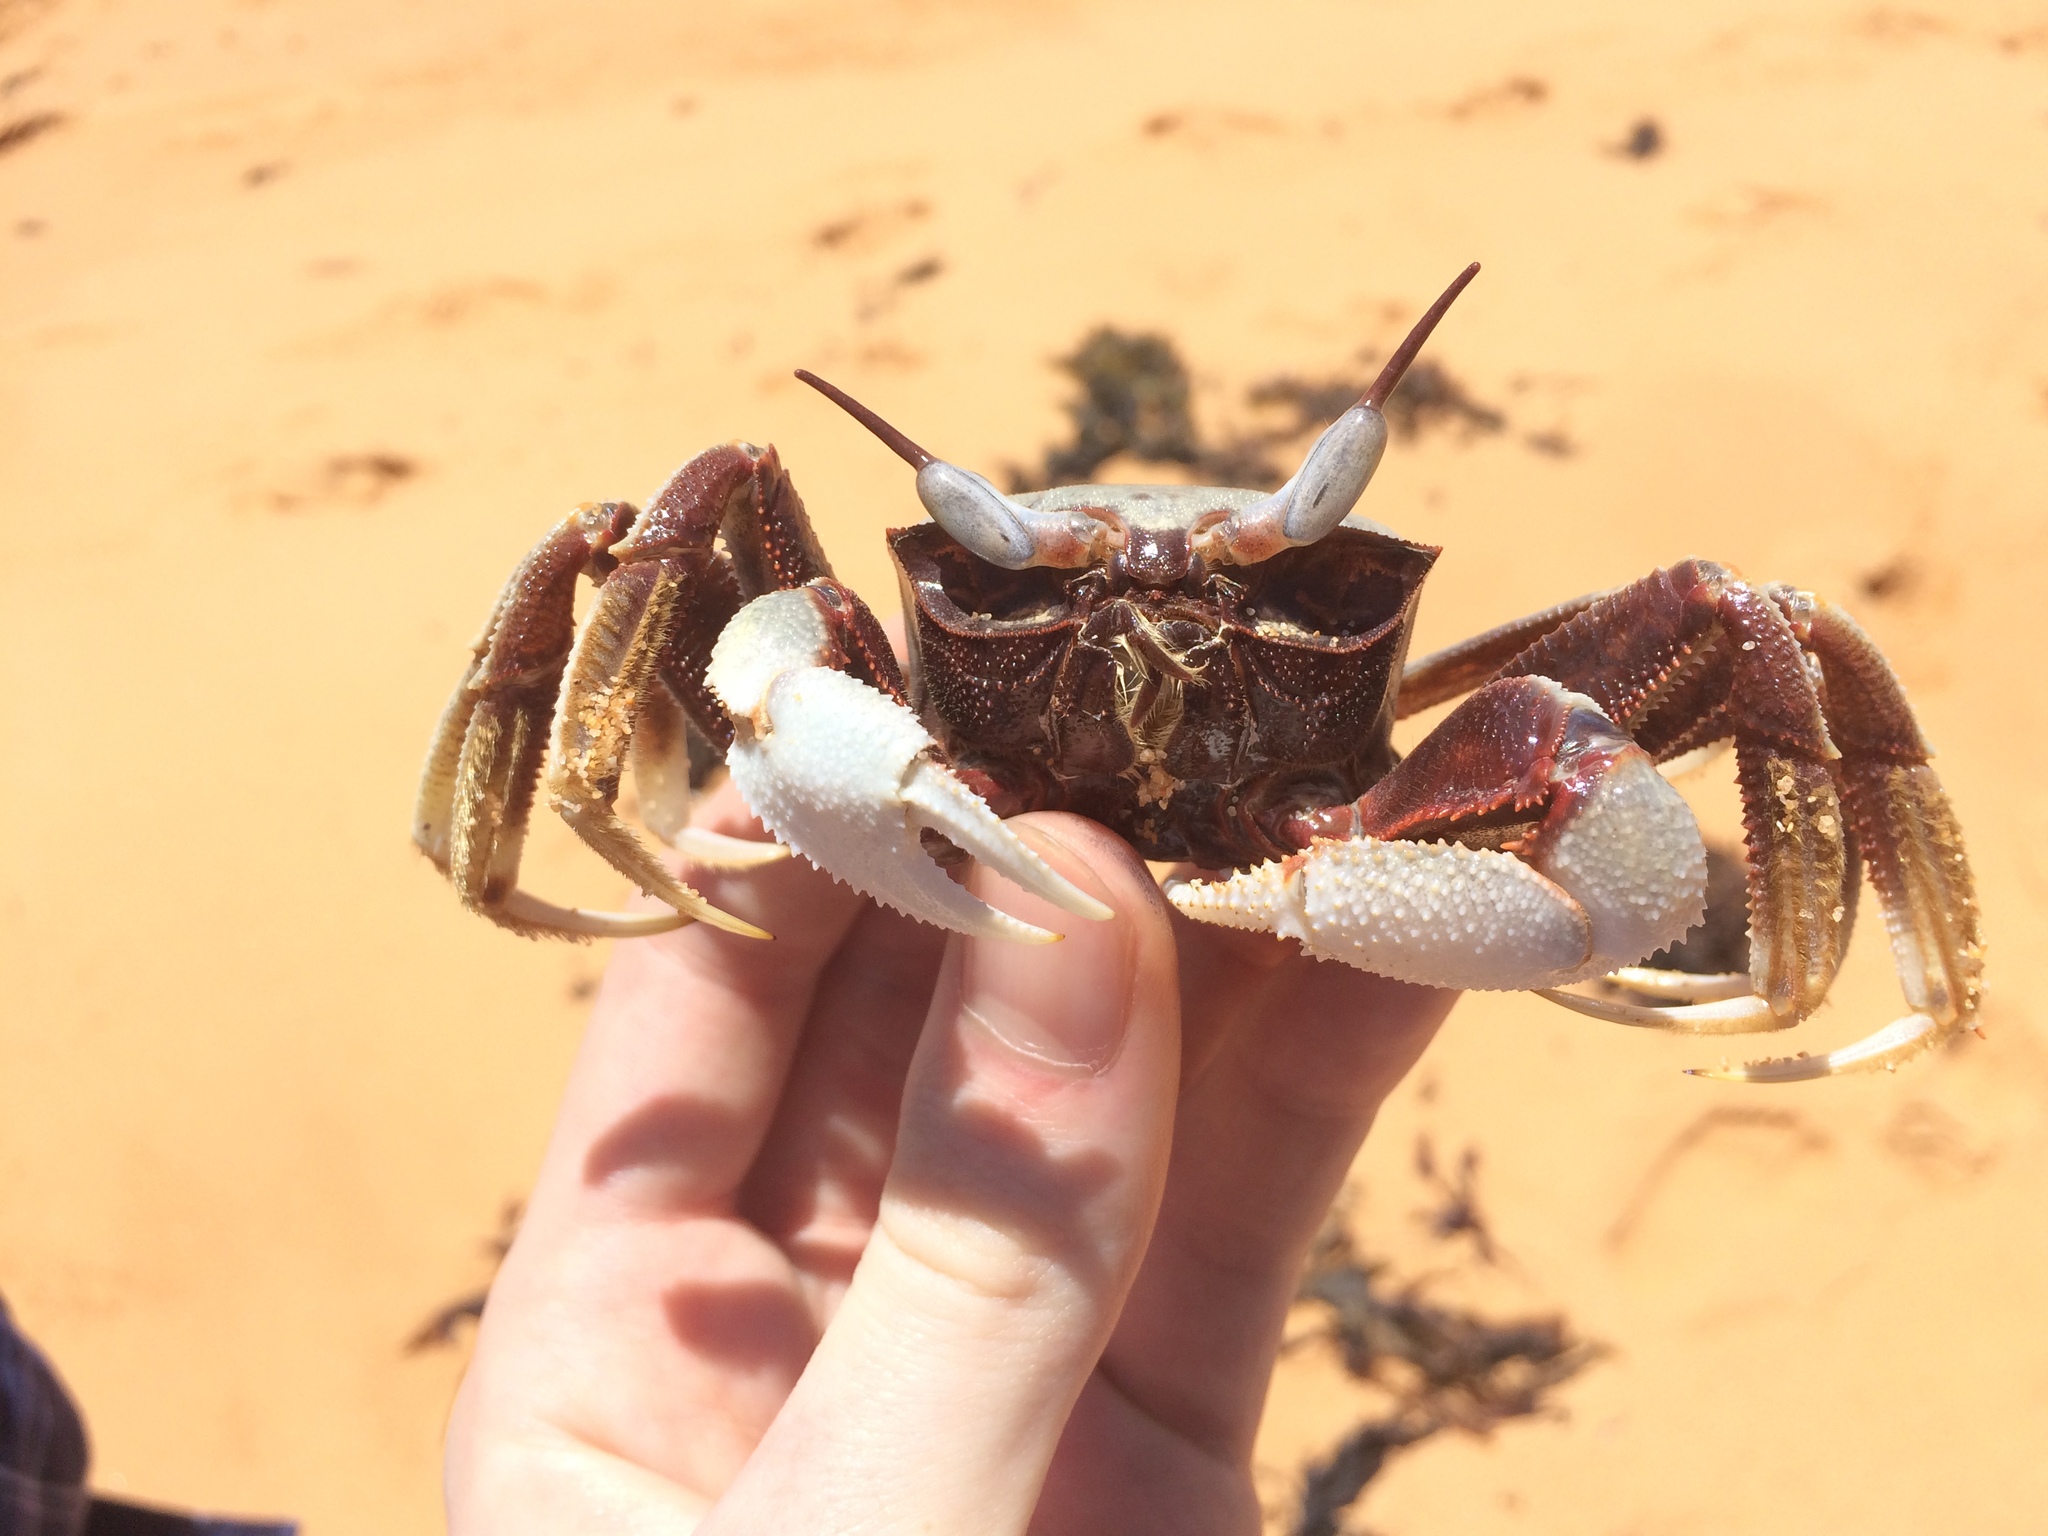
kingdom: Animalia
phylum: Arthropoda
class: Malacostraca
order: Decapoda
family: Ocypodidae
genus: Ocypode
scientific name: Ocypode ceratophthalmus
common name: Indo-pacific ghost crab
